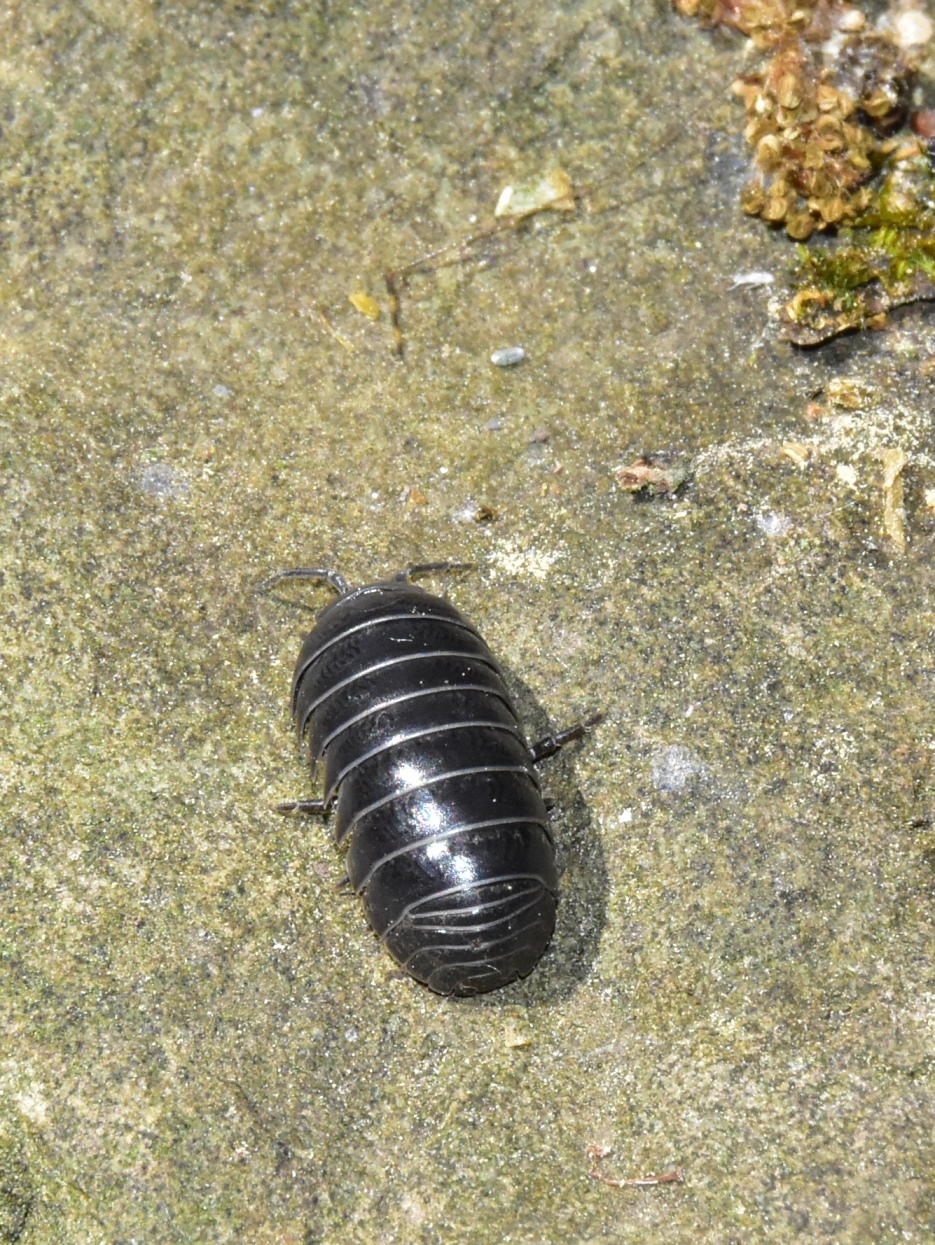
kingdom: Animalia
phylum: Arthropoda
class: Malacostraca
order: Isopoda
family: Armadillidiidae
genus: Armadillidium
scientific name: Armadillidium vulgare
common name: Common pill woodlouse
